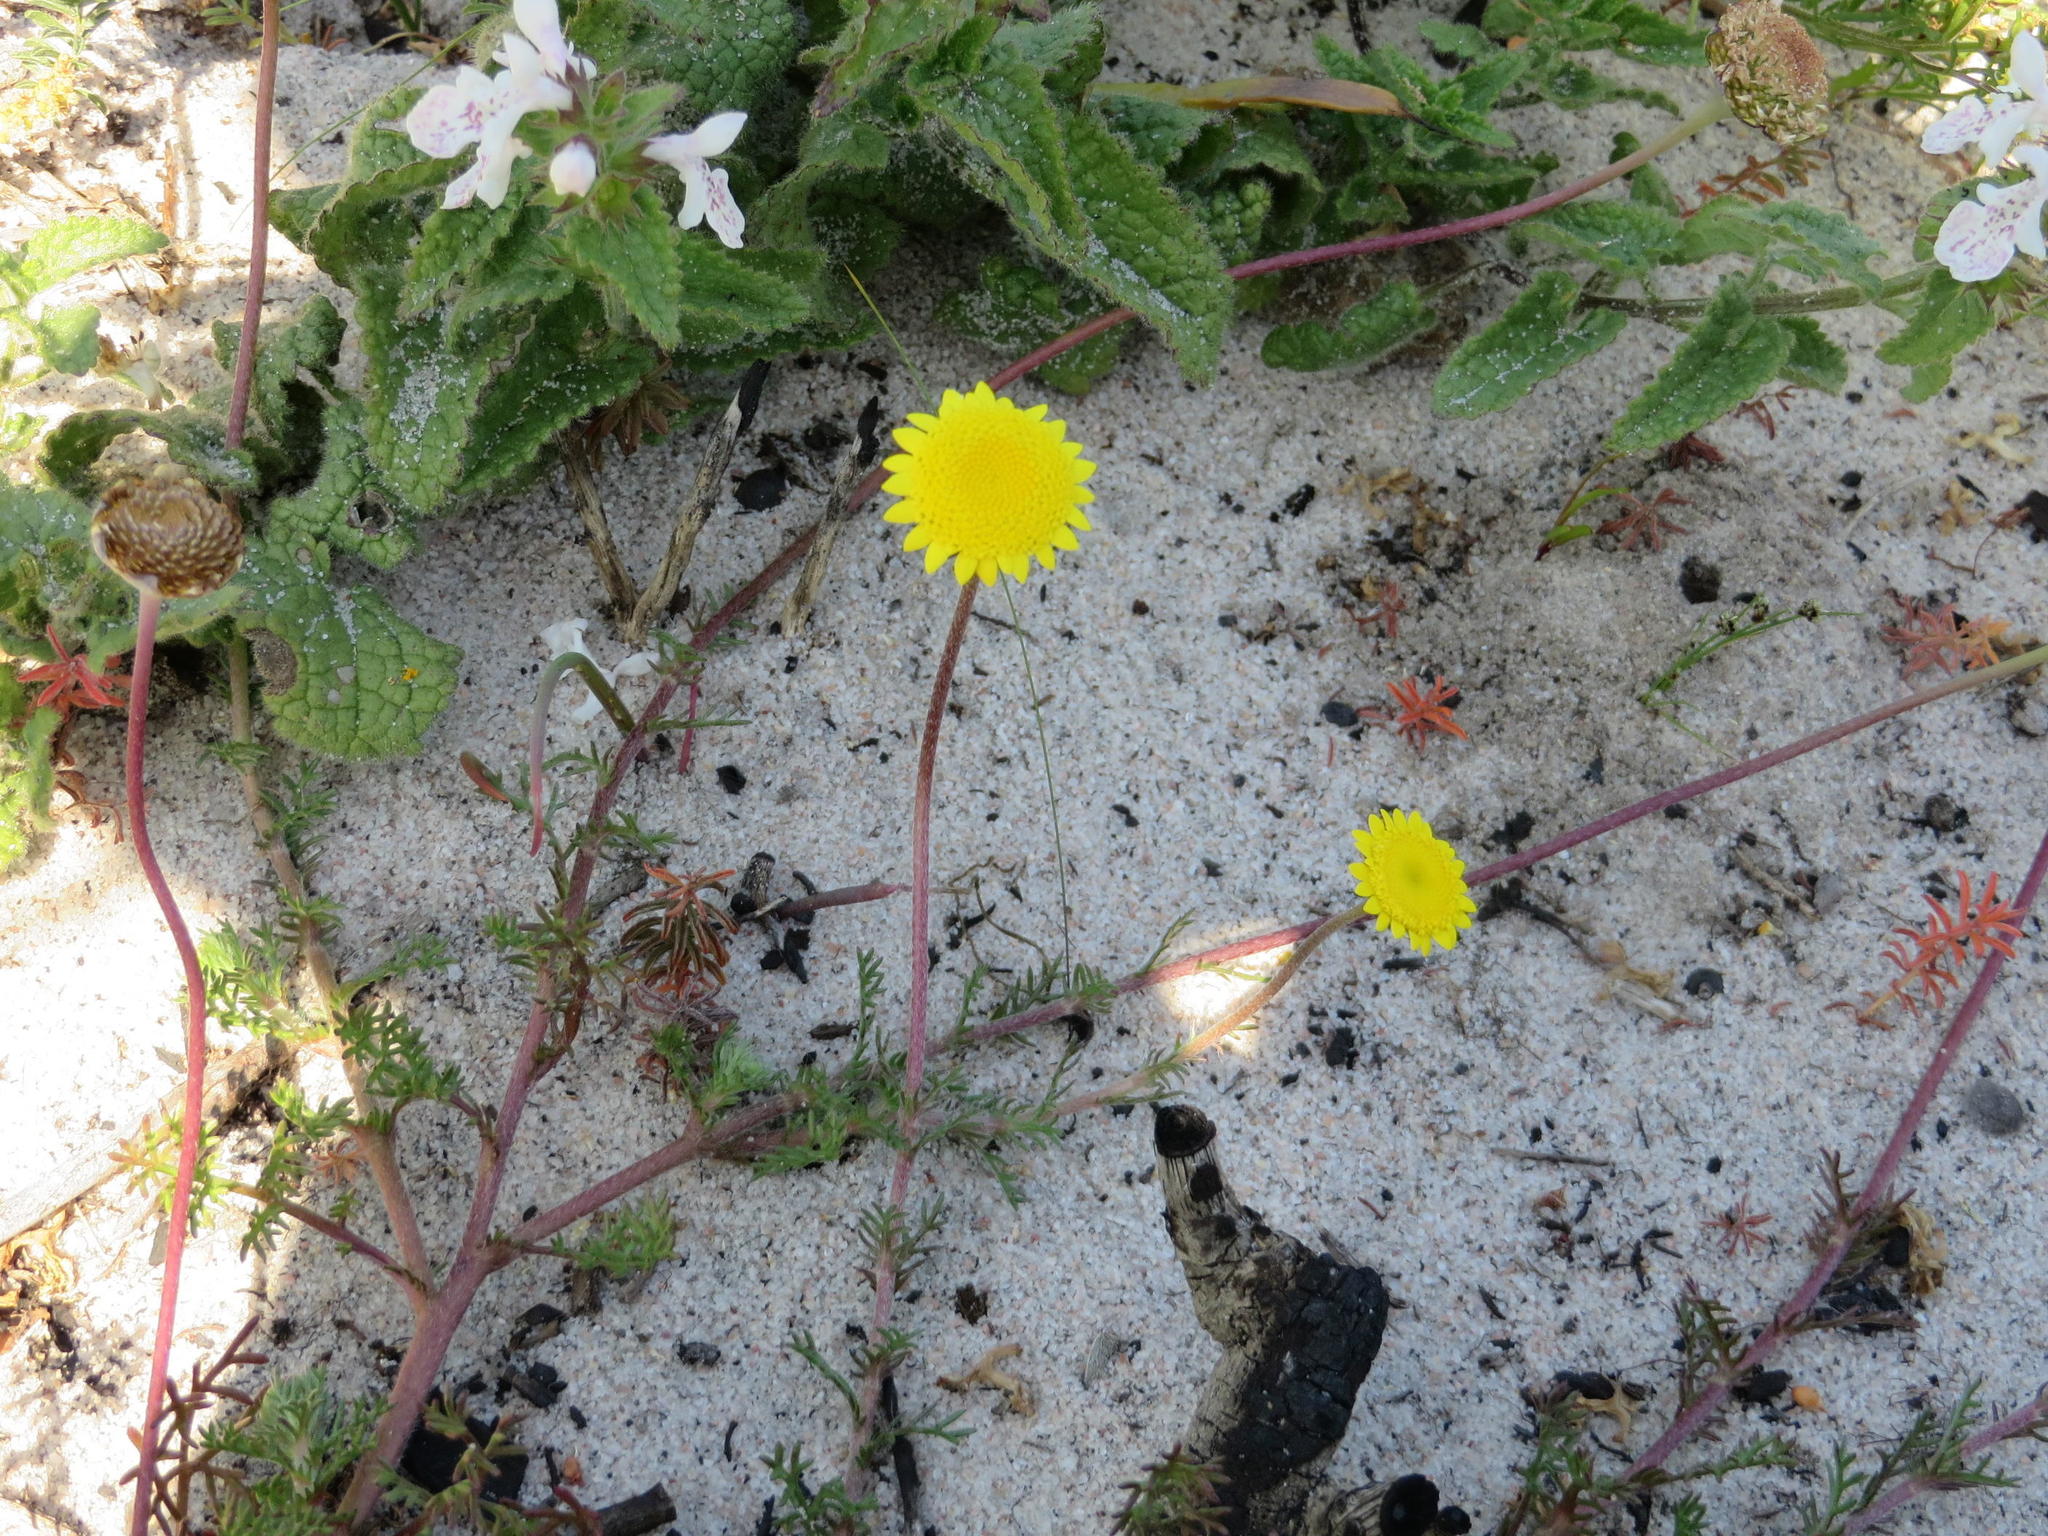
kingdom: Plantae
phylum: Tracheophyta
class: Magnoliopsida
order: Asterales
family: Asteraceae
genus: Cotula
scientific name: Cotula pruinosa
